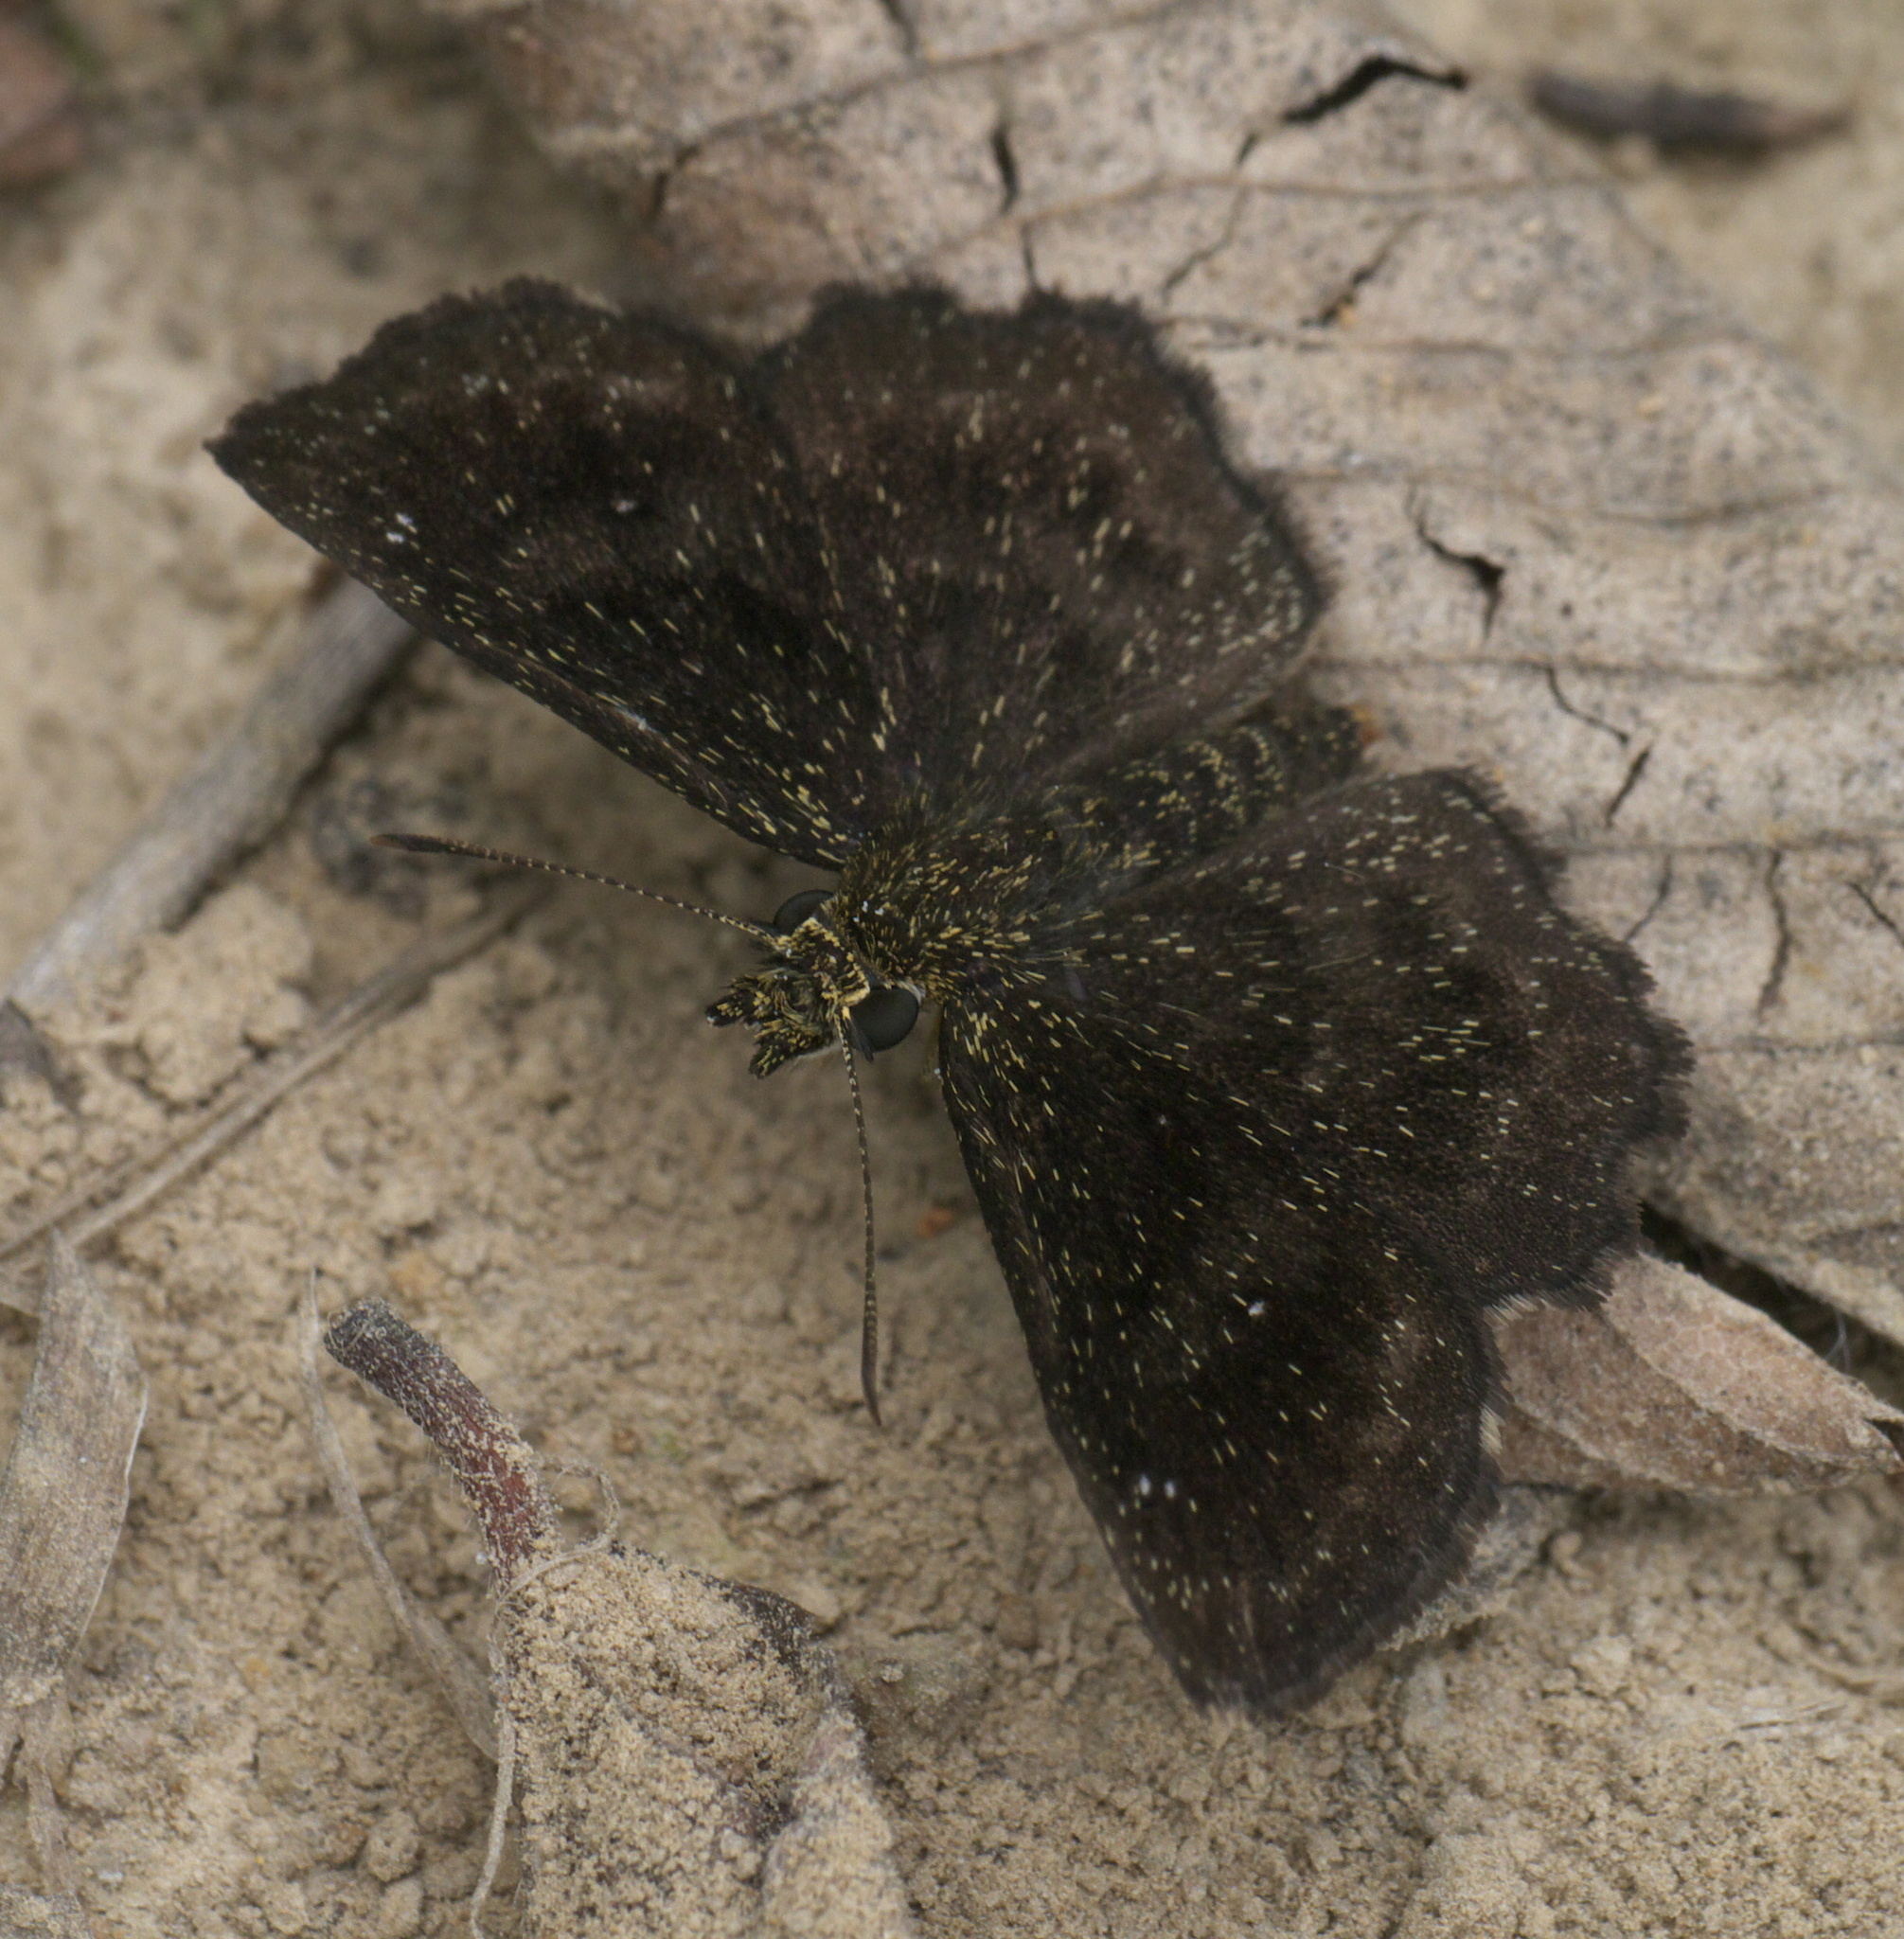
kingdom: Animalia
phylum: Arthropoda
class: Insecta
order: Lepidoptera
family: Hesperiidae
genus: Staphylus
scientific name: Staphylus mazans
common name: Mazans scallopwing
